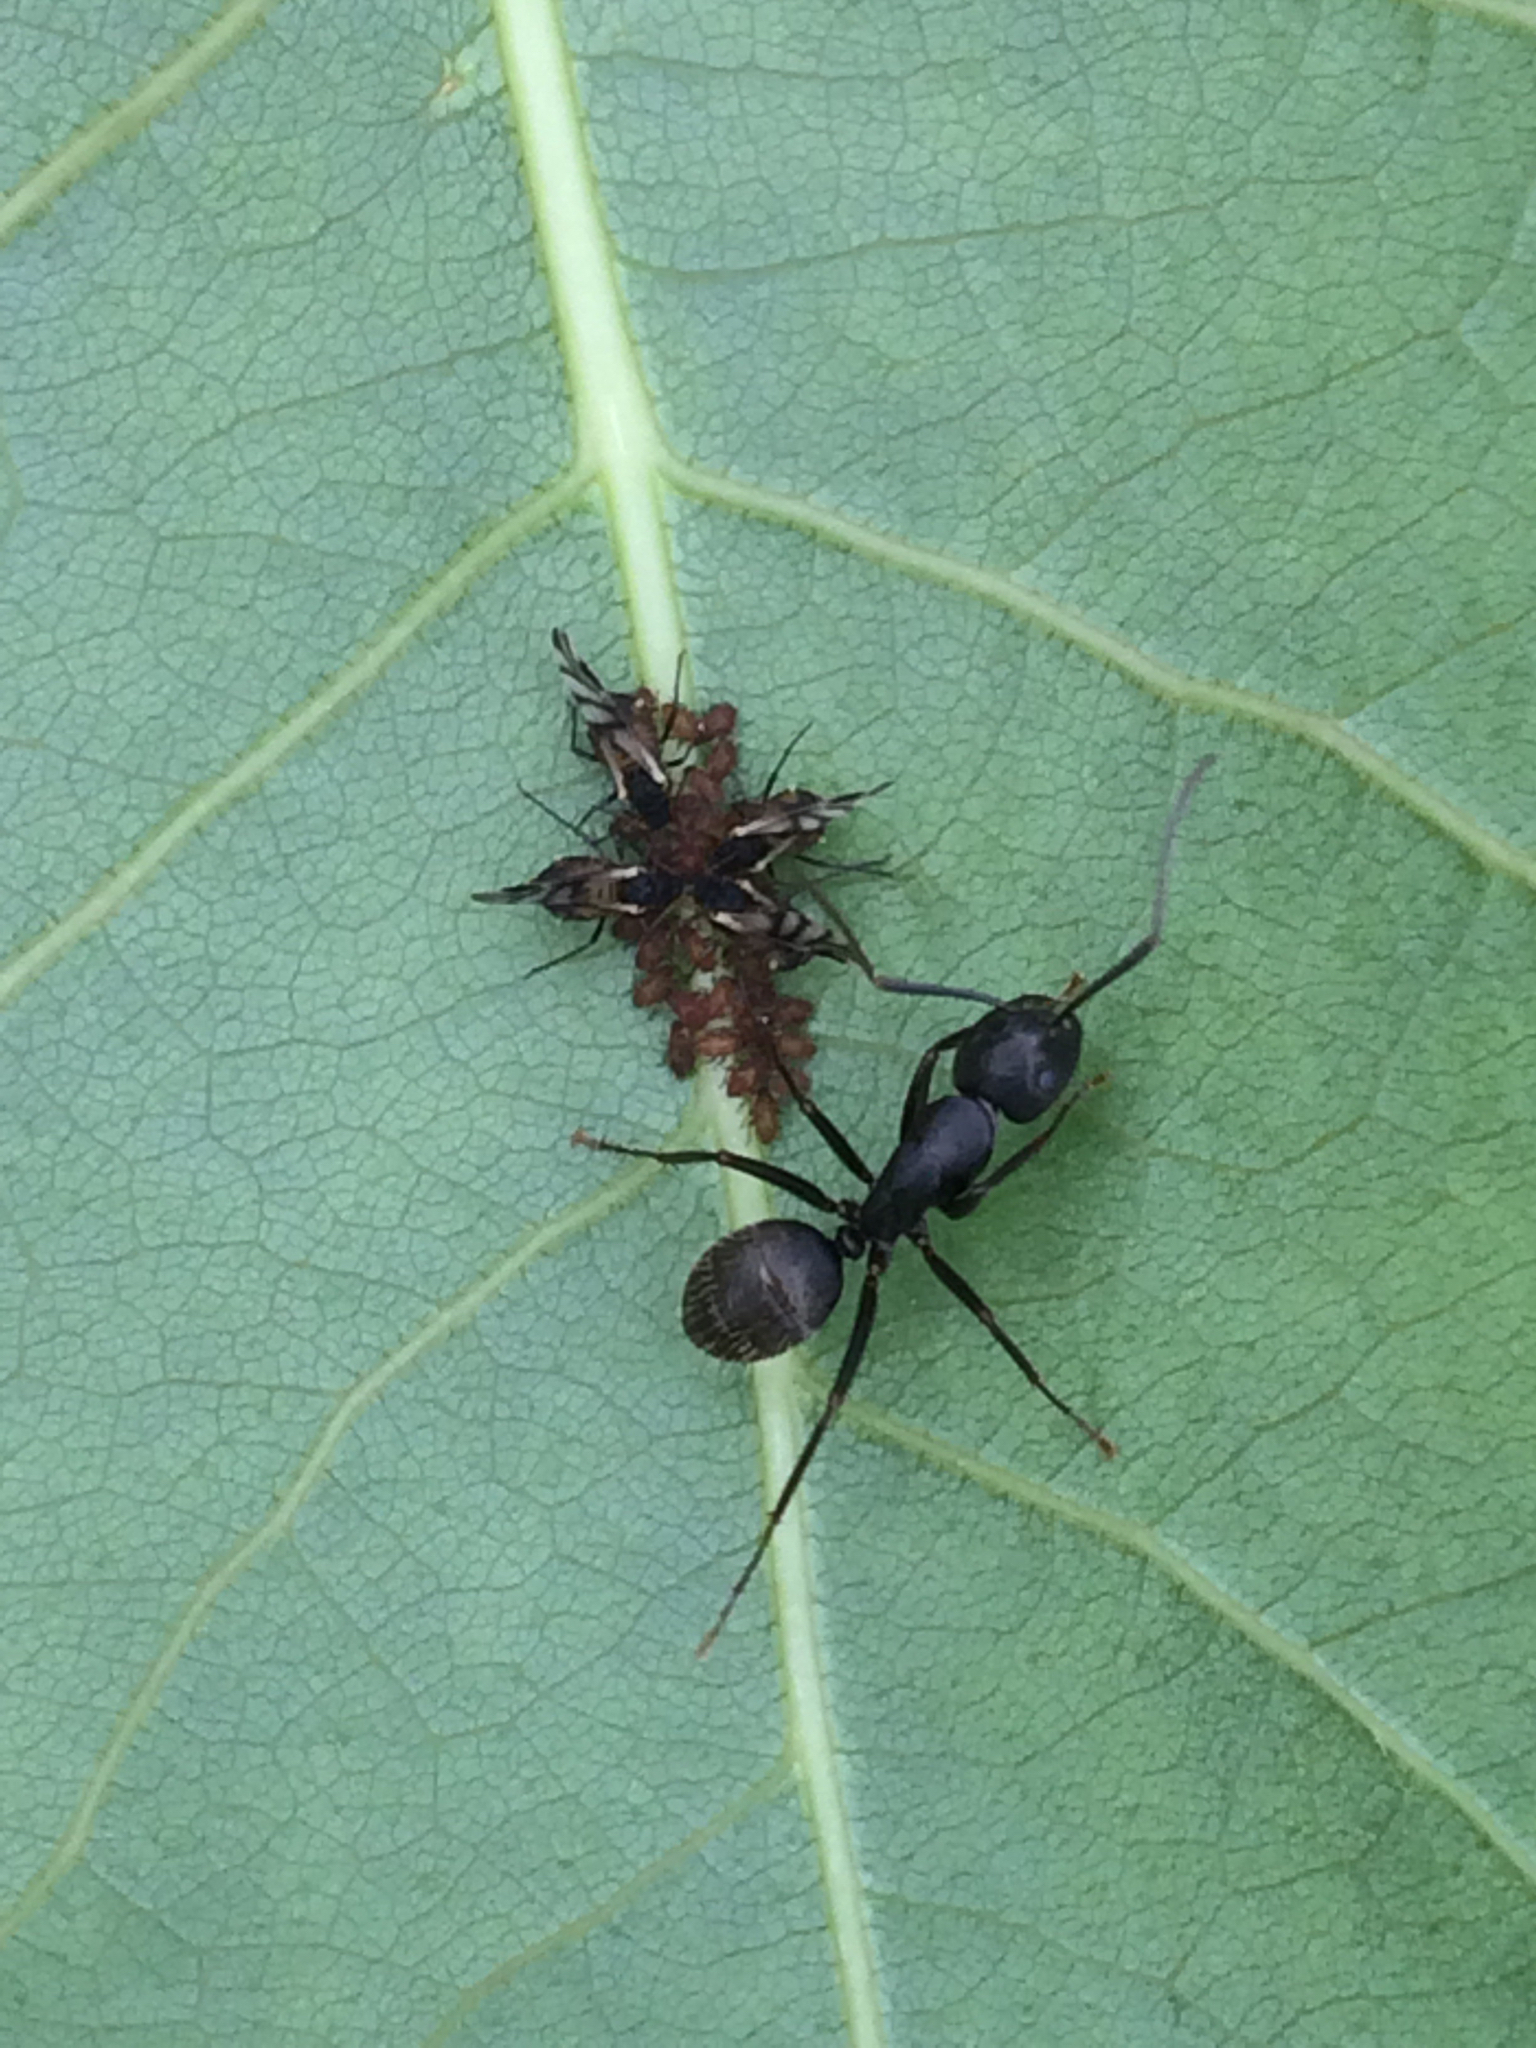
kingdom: Animalia
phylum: Arthropoda
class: Insecta
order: Hymenoptera
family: Formicidae
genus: Camponotus
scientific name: Camponotus pennsylvanicus
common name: Black carpenter ant
